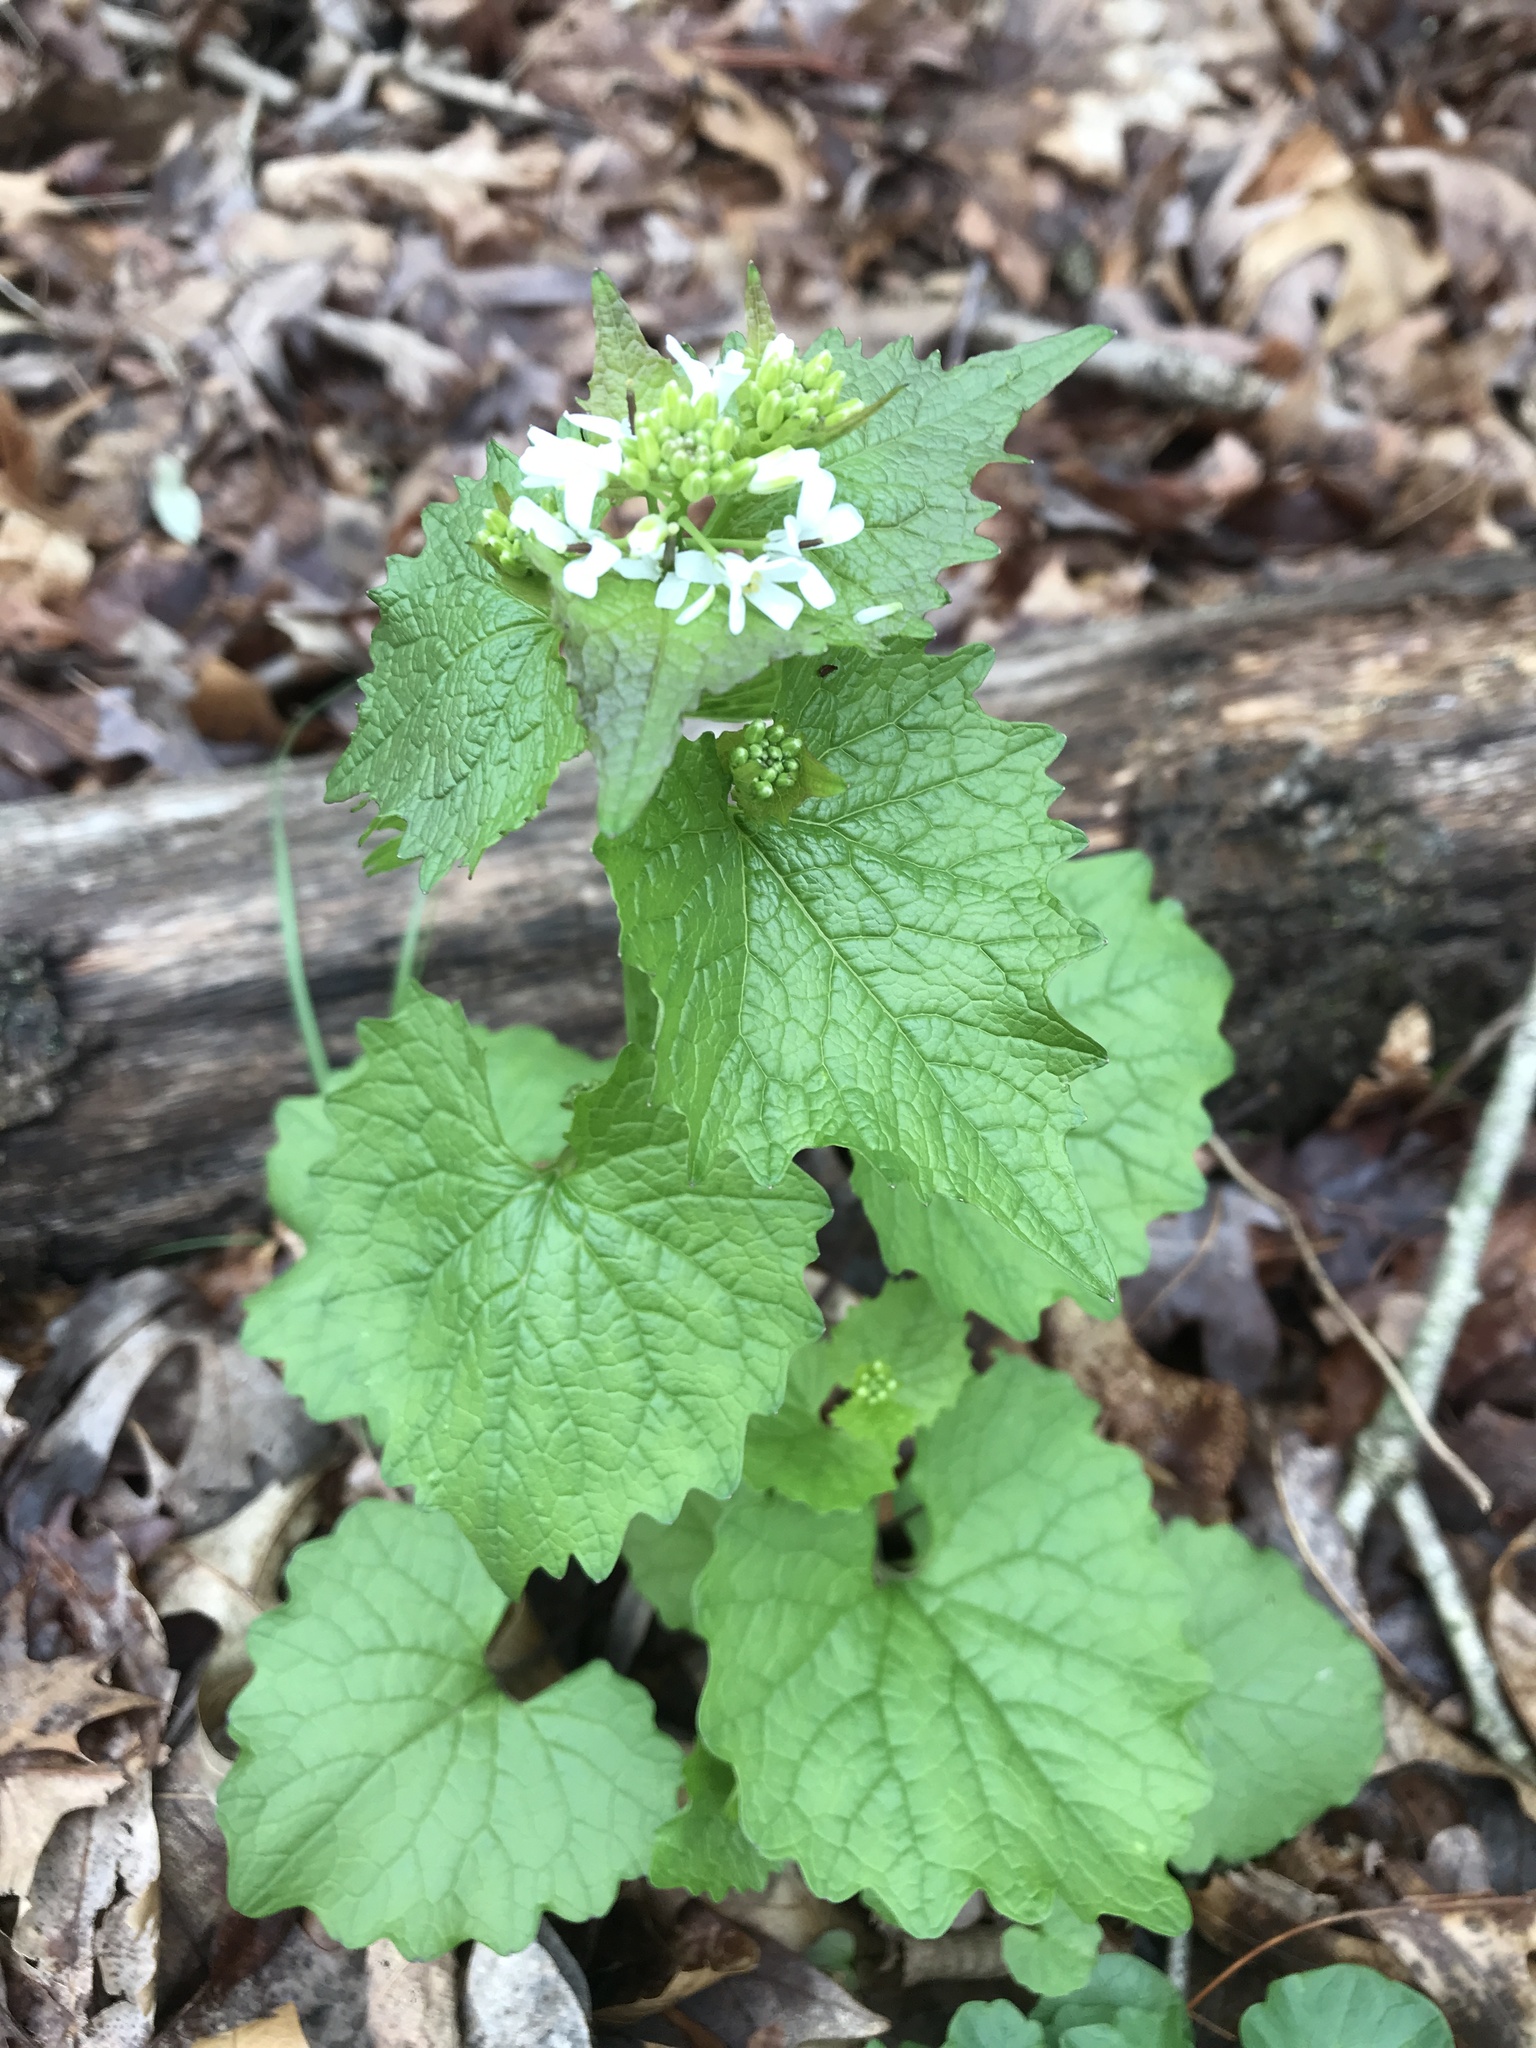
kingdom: Plantae
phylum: Tracheophyta
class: Magnoliopsida
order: Brassicales
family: Brassicaceae
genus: Alliaria
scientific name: Alliaria petiolata
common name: Garlic mustard
